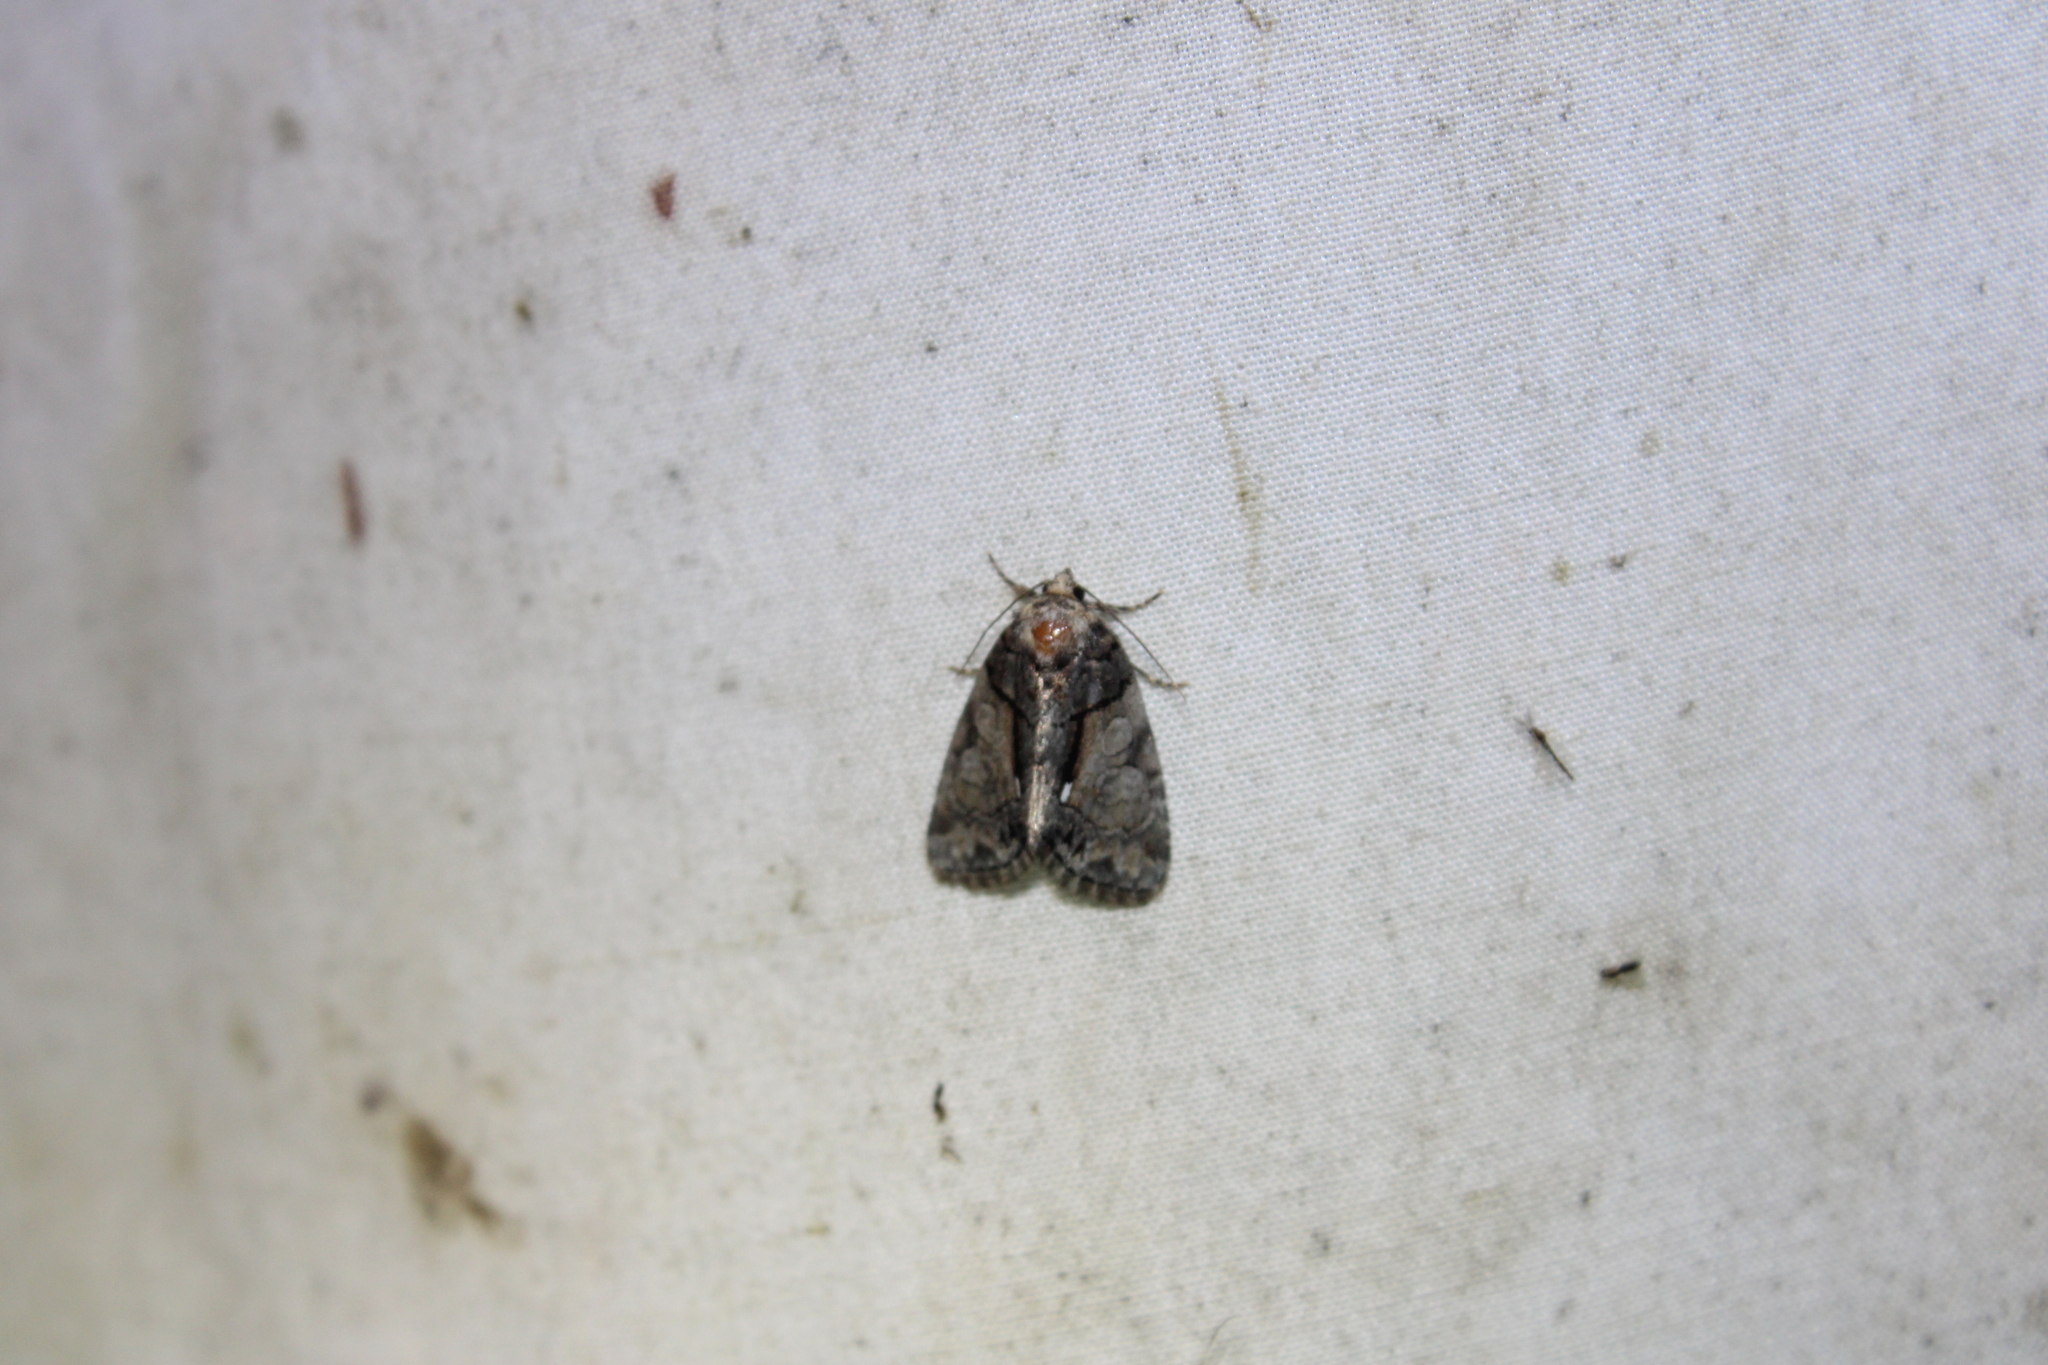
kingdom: Animalia
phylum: Arthropoda
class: Insecta
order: Lepidoptera
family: Noctuidae
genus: Chytonix
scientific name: Chytonix palliatricula
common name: Cloaked marvel
